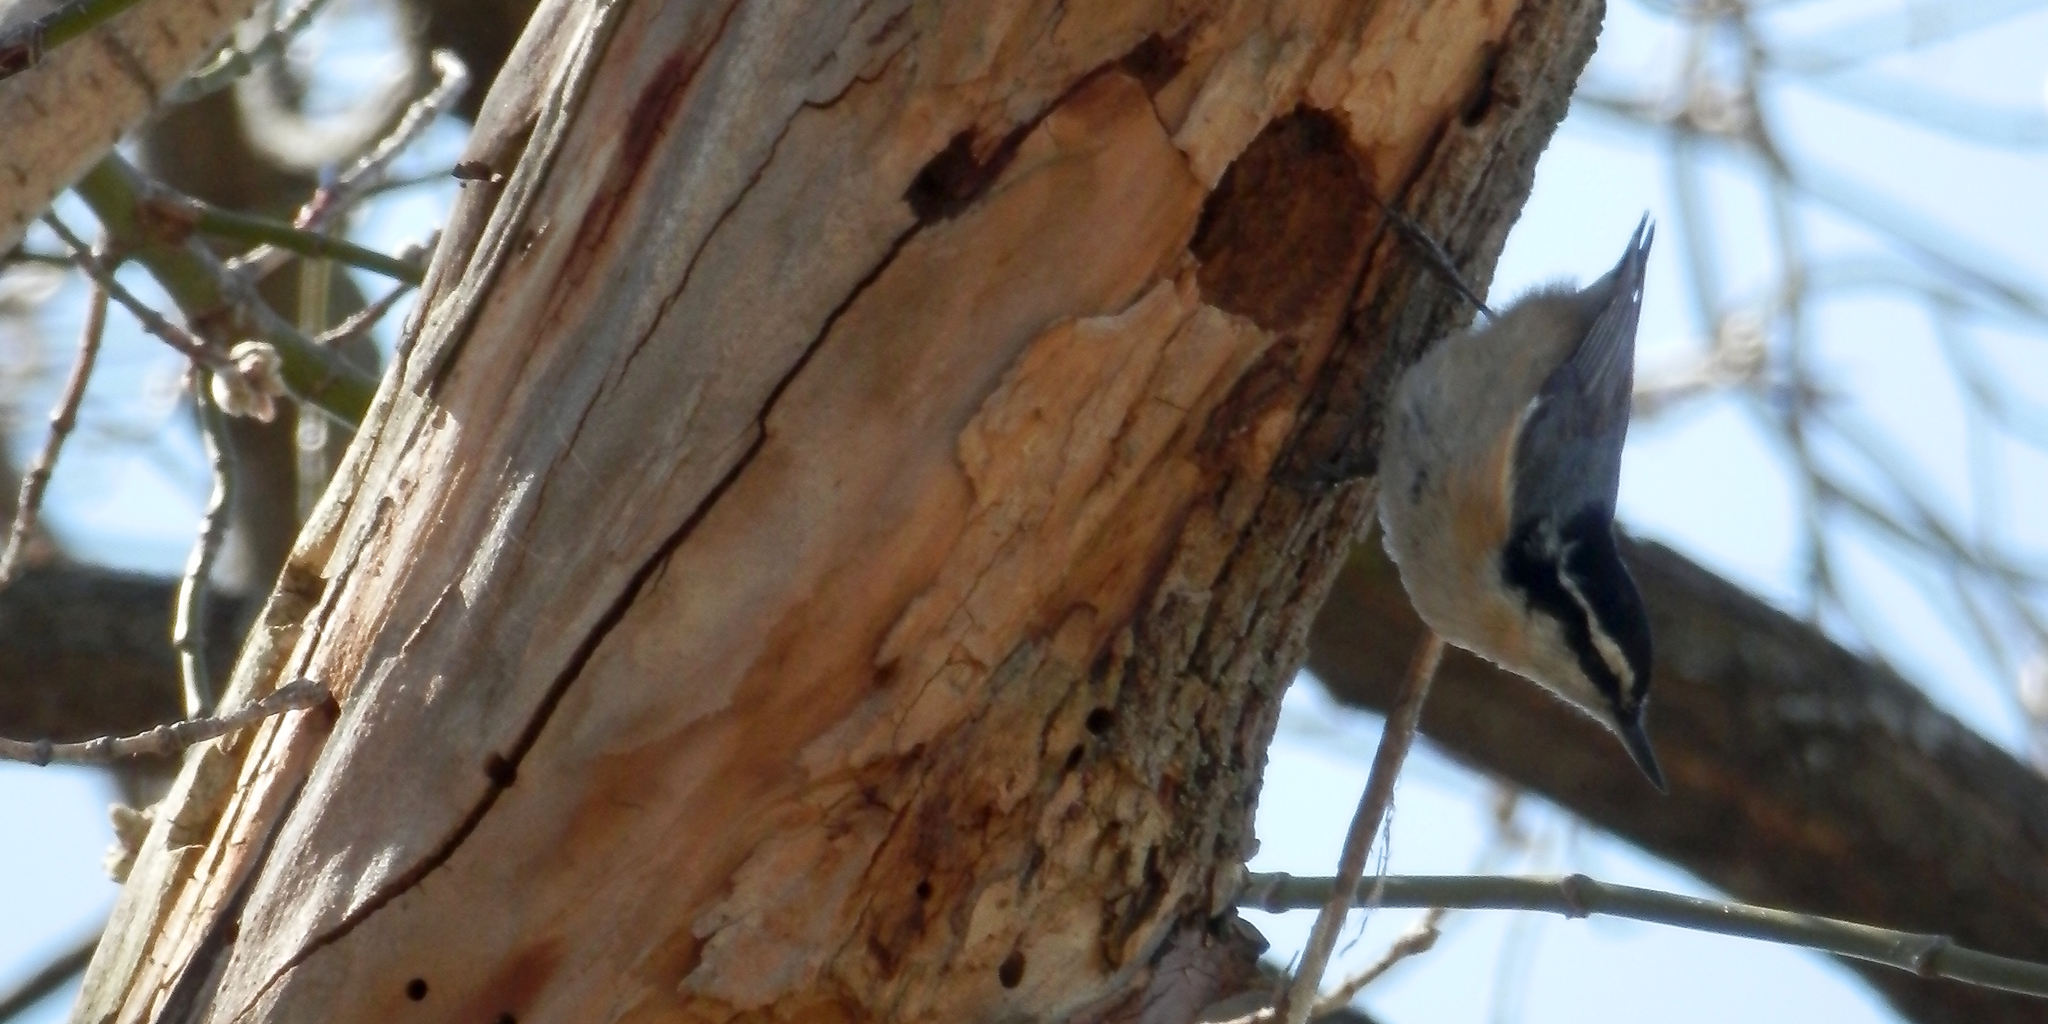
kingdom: Animalia
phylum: Chordata
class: Aves
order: Passeriformes
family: Sittidae
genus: Sitta
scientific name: Sitta canadensis
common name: Red-breasted nuthatch
